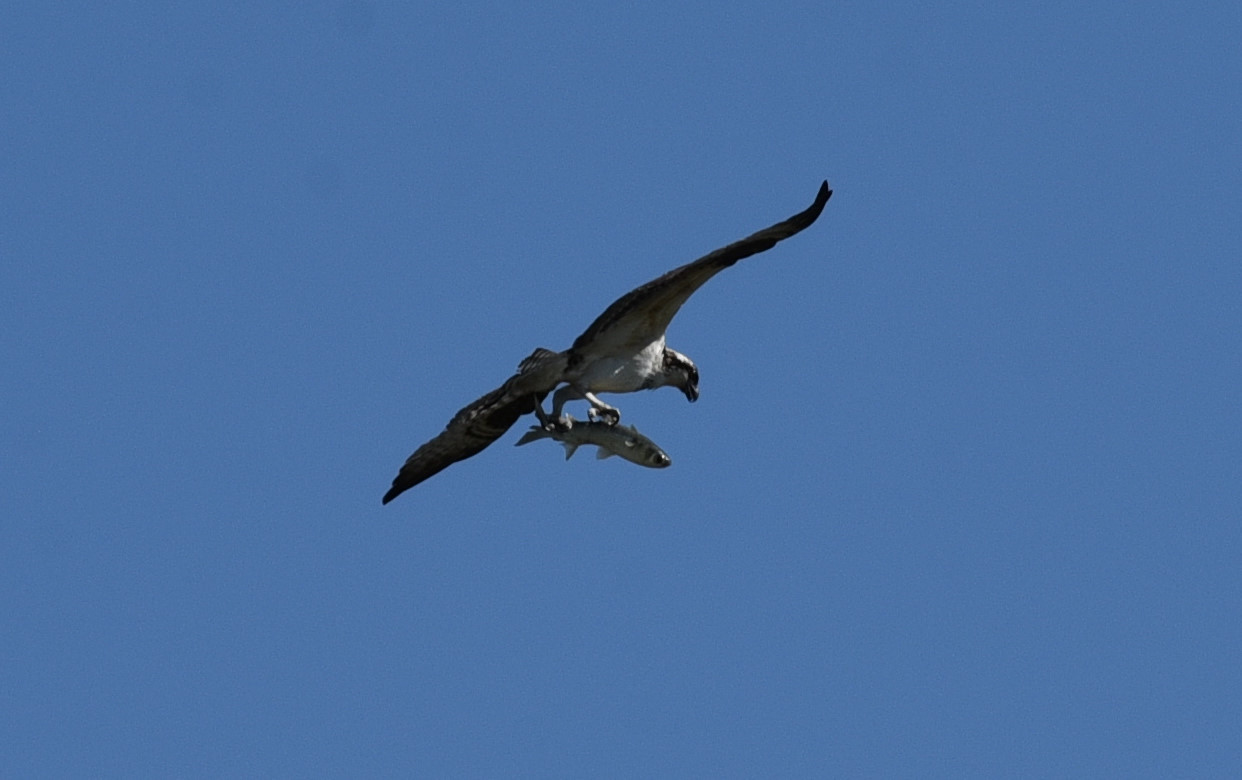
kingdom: Animalia
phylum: Chordata
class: Aves
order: Accipitriformes
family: Pandionidae
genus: Pandion
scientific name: Pandion haliaetus
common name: Osprey
